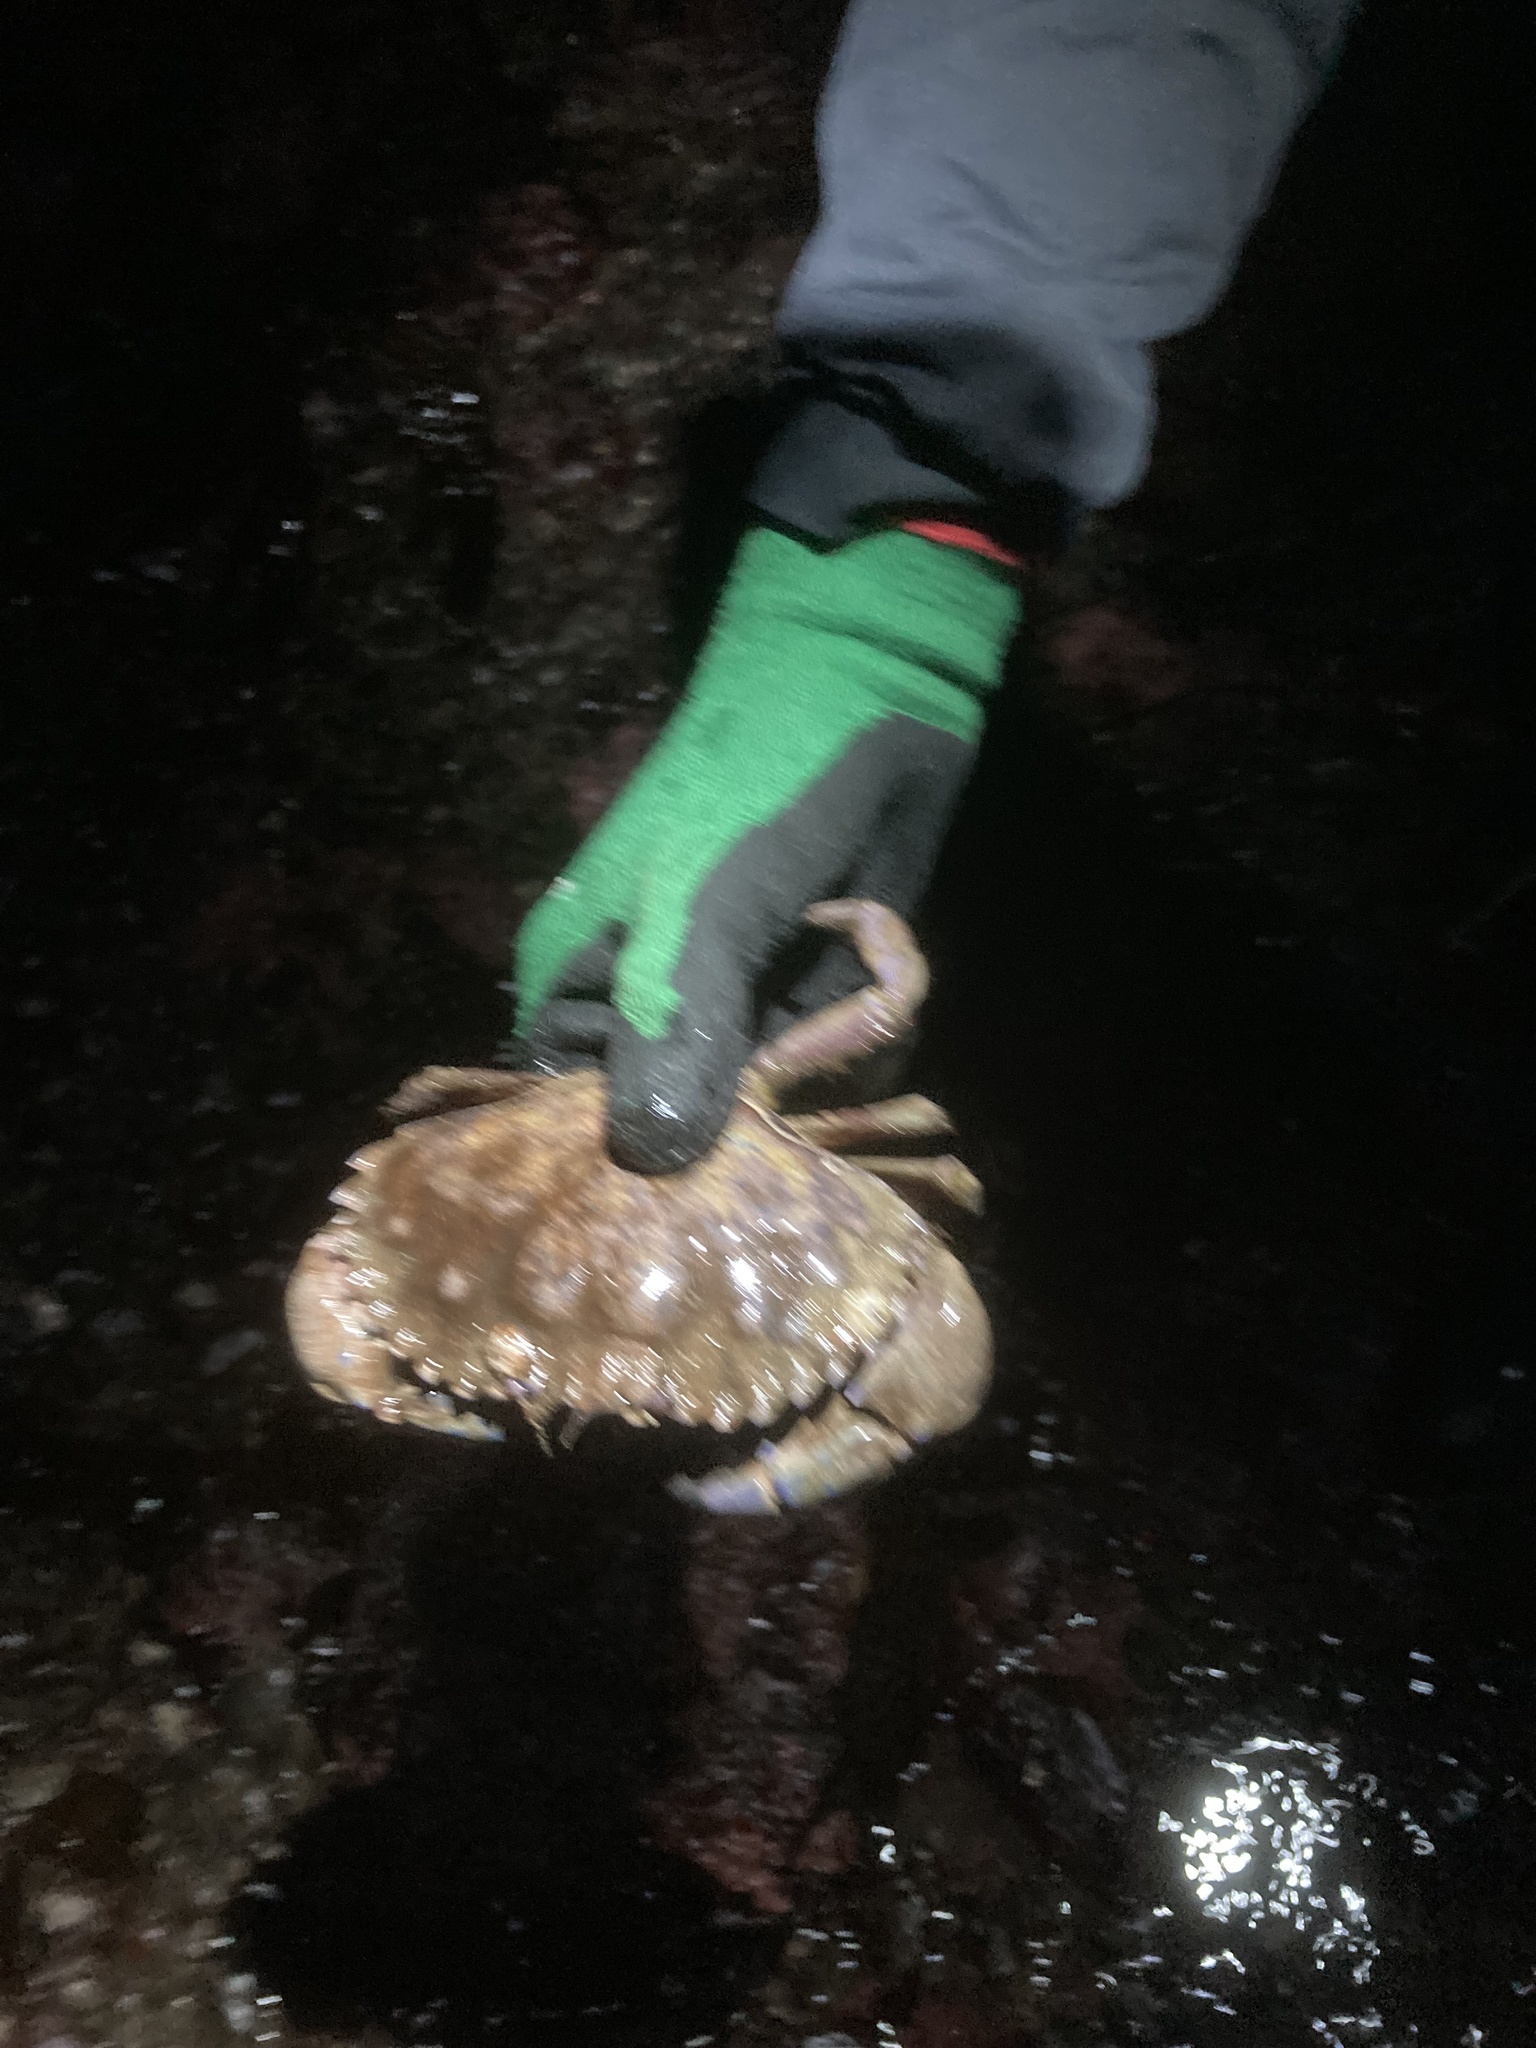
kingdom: Animalia
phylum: Arthropoda
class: Malacostraca
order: Decapoda
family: Cancridae
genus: Romaleon
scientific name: Romaleon antennarium
